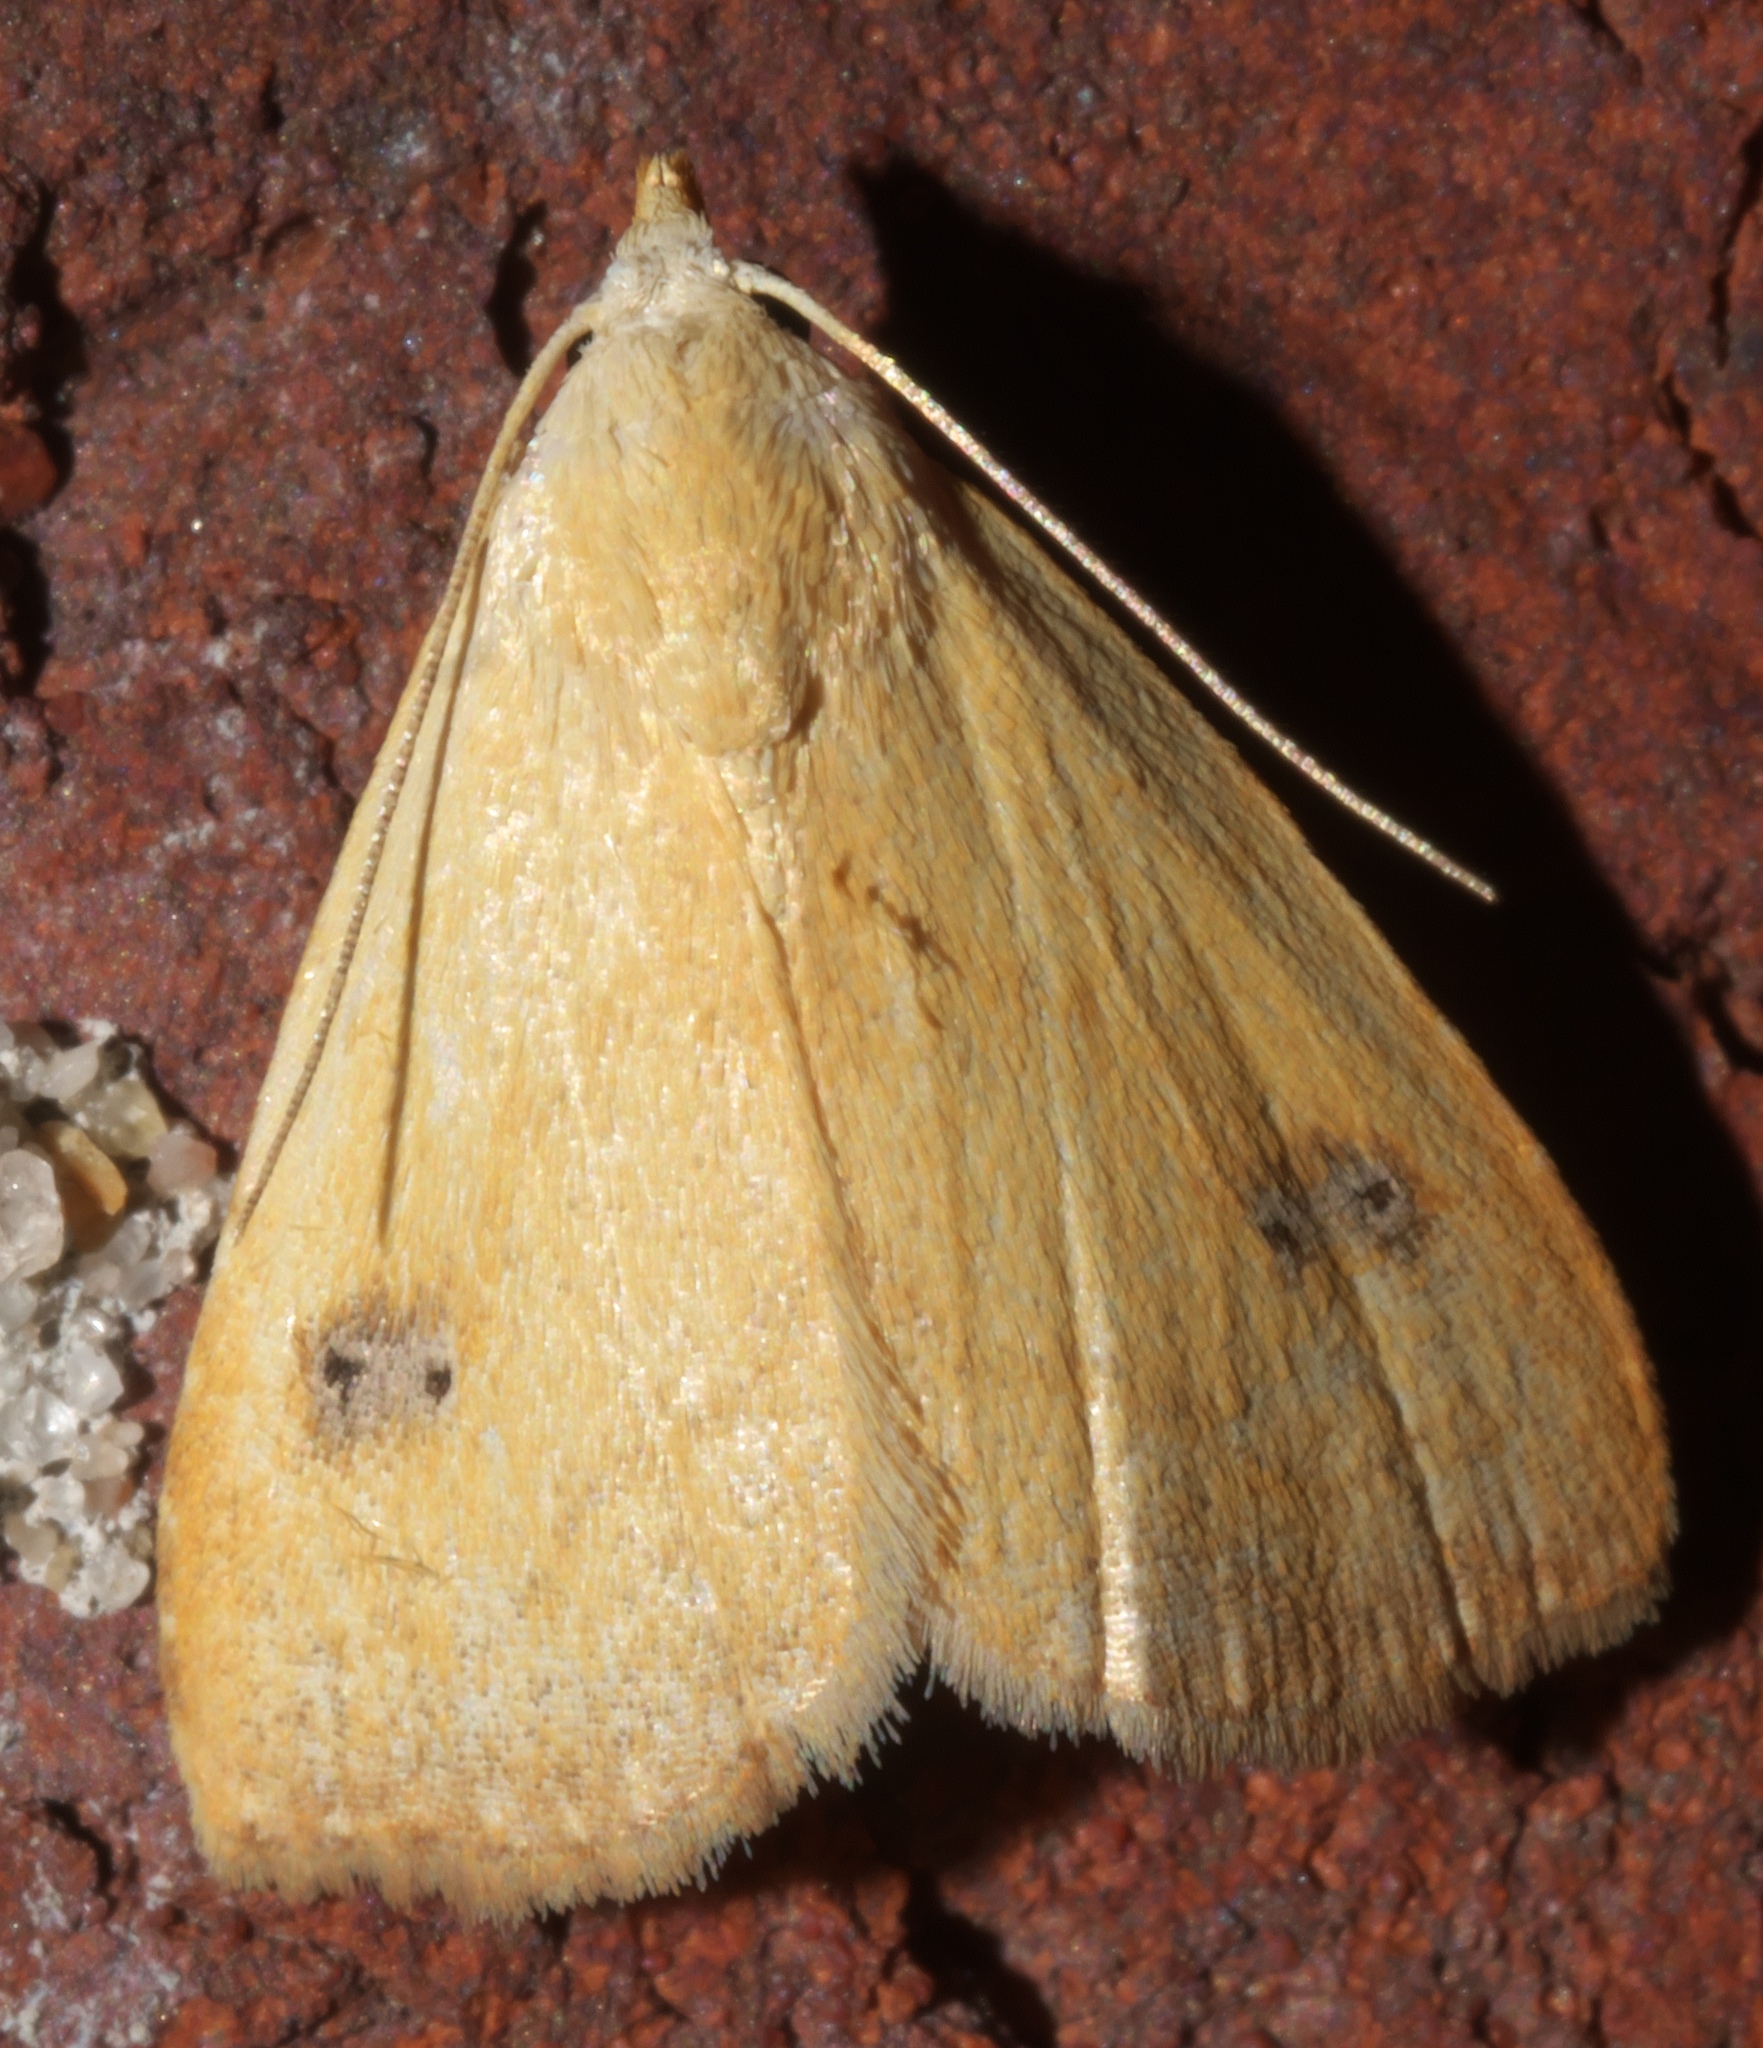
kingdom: Animalia
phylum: Arthropoda
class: Insecta
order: Lepidoptera
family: Erebidae
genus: Rivula
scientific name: Rivula propinqualis
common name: Spotted grass moth
